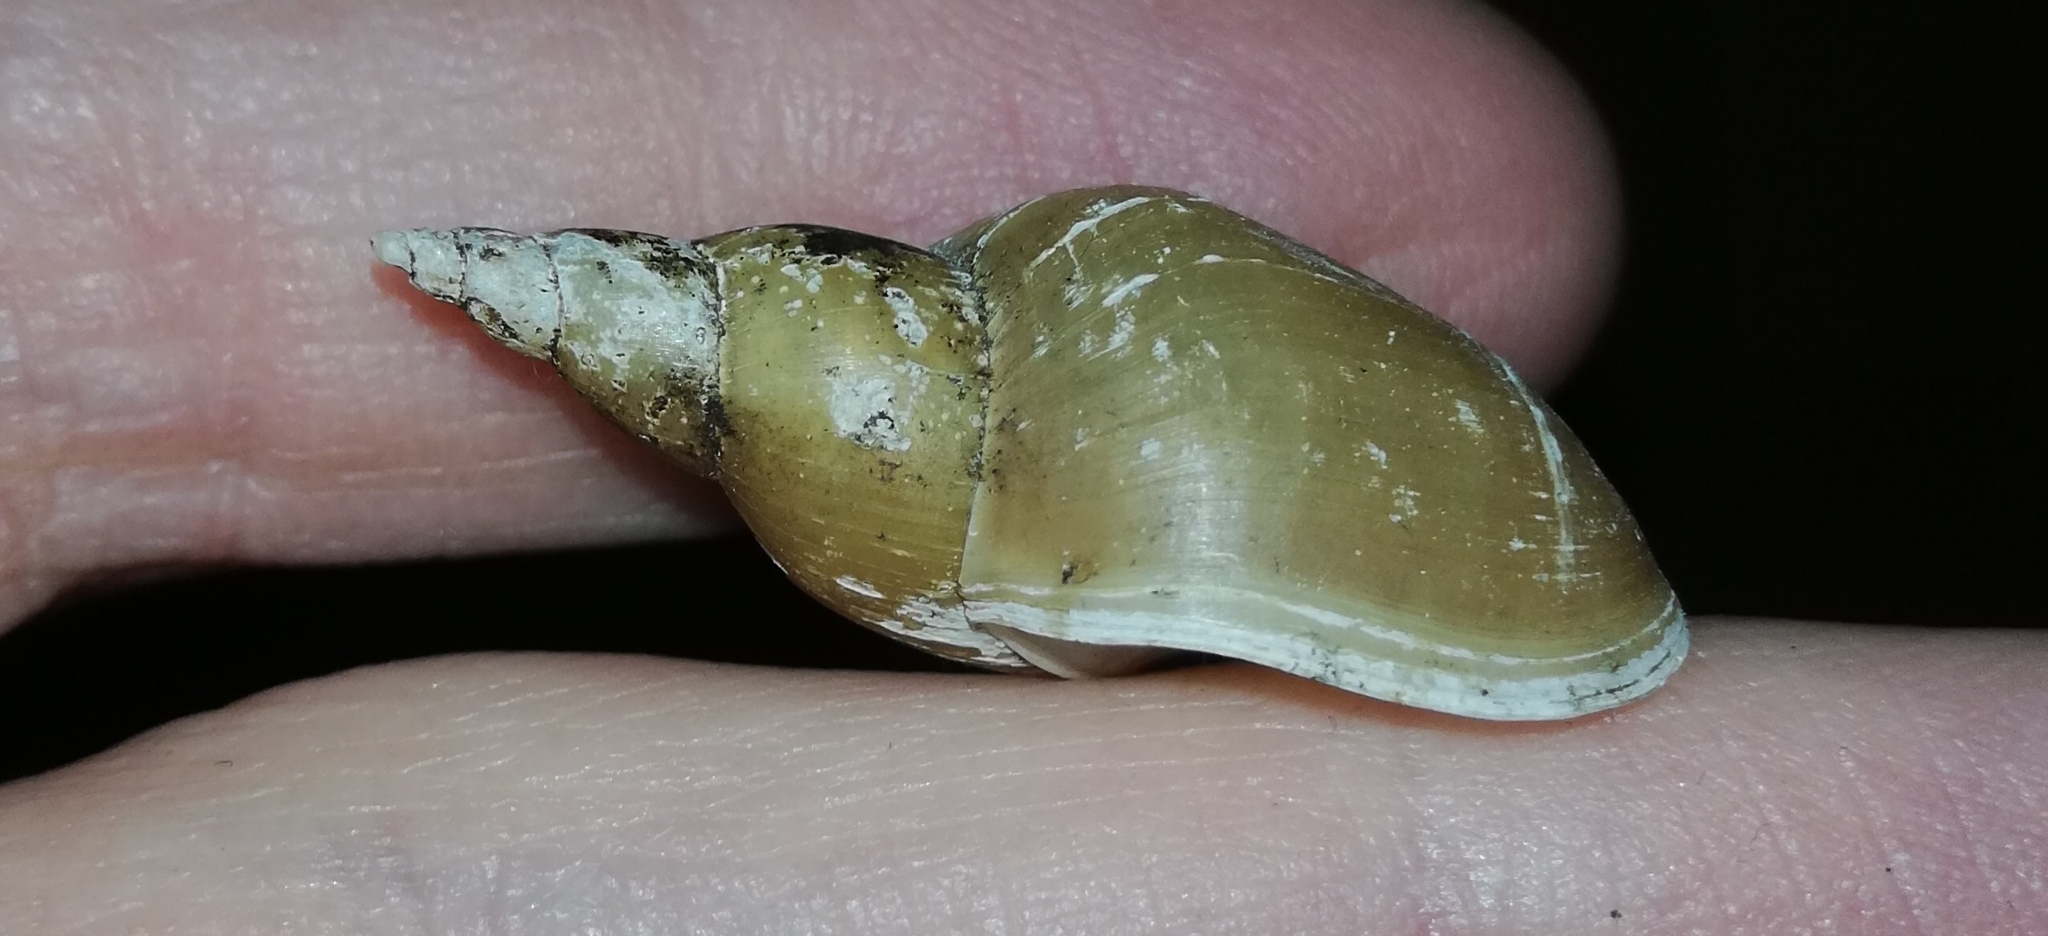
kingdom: Animalia
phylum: Mollusca
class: Gastropoda
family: Lymnaeidae
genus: Lymnaea
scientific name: Lymnaea stagnalis
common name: Great pond snail
